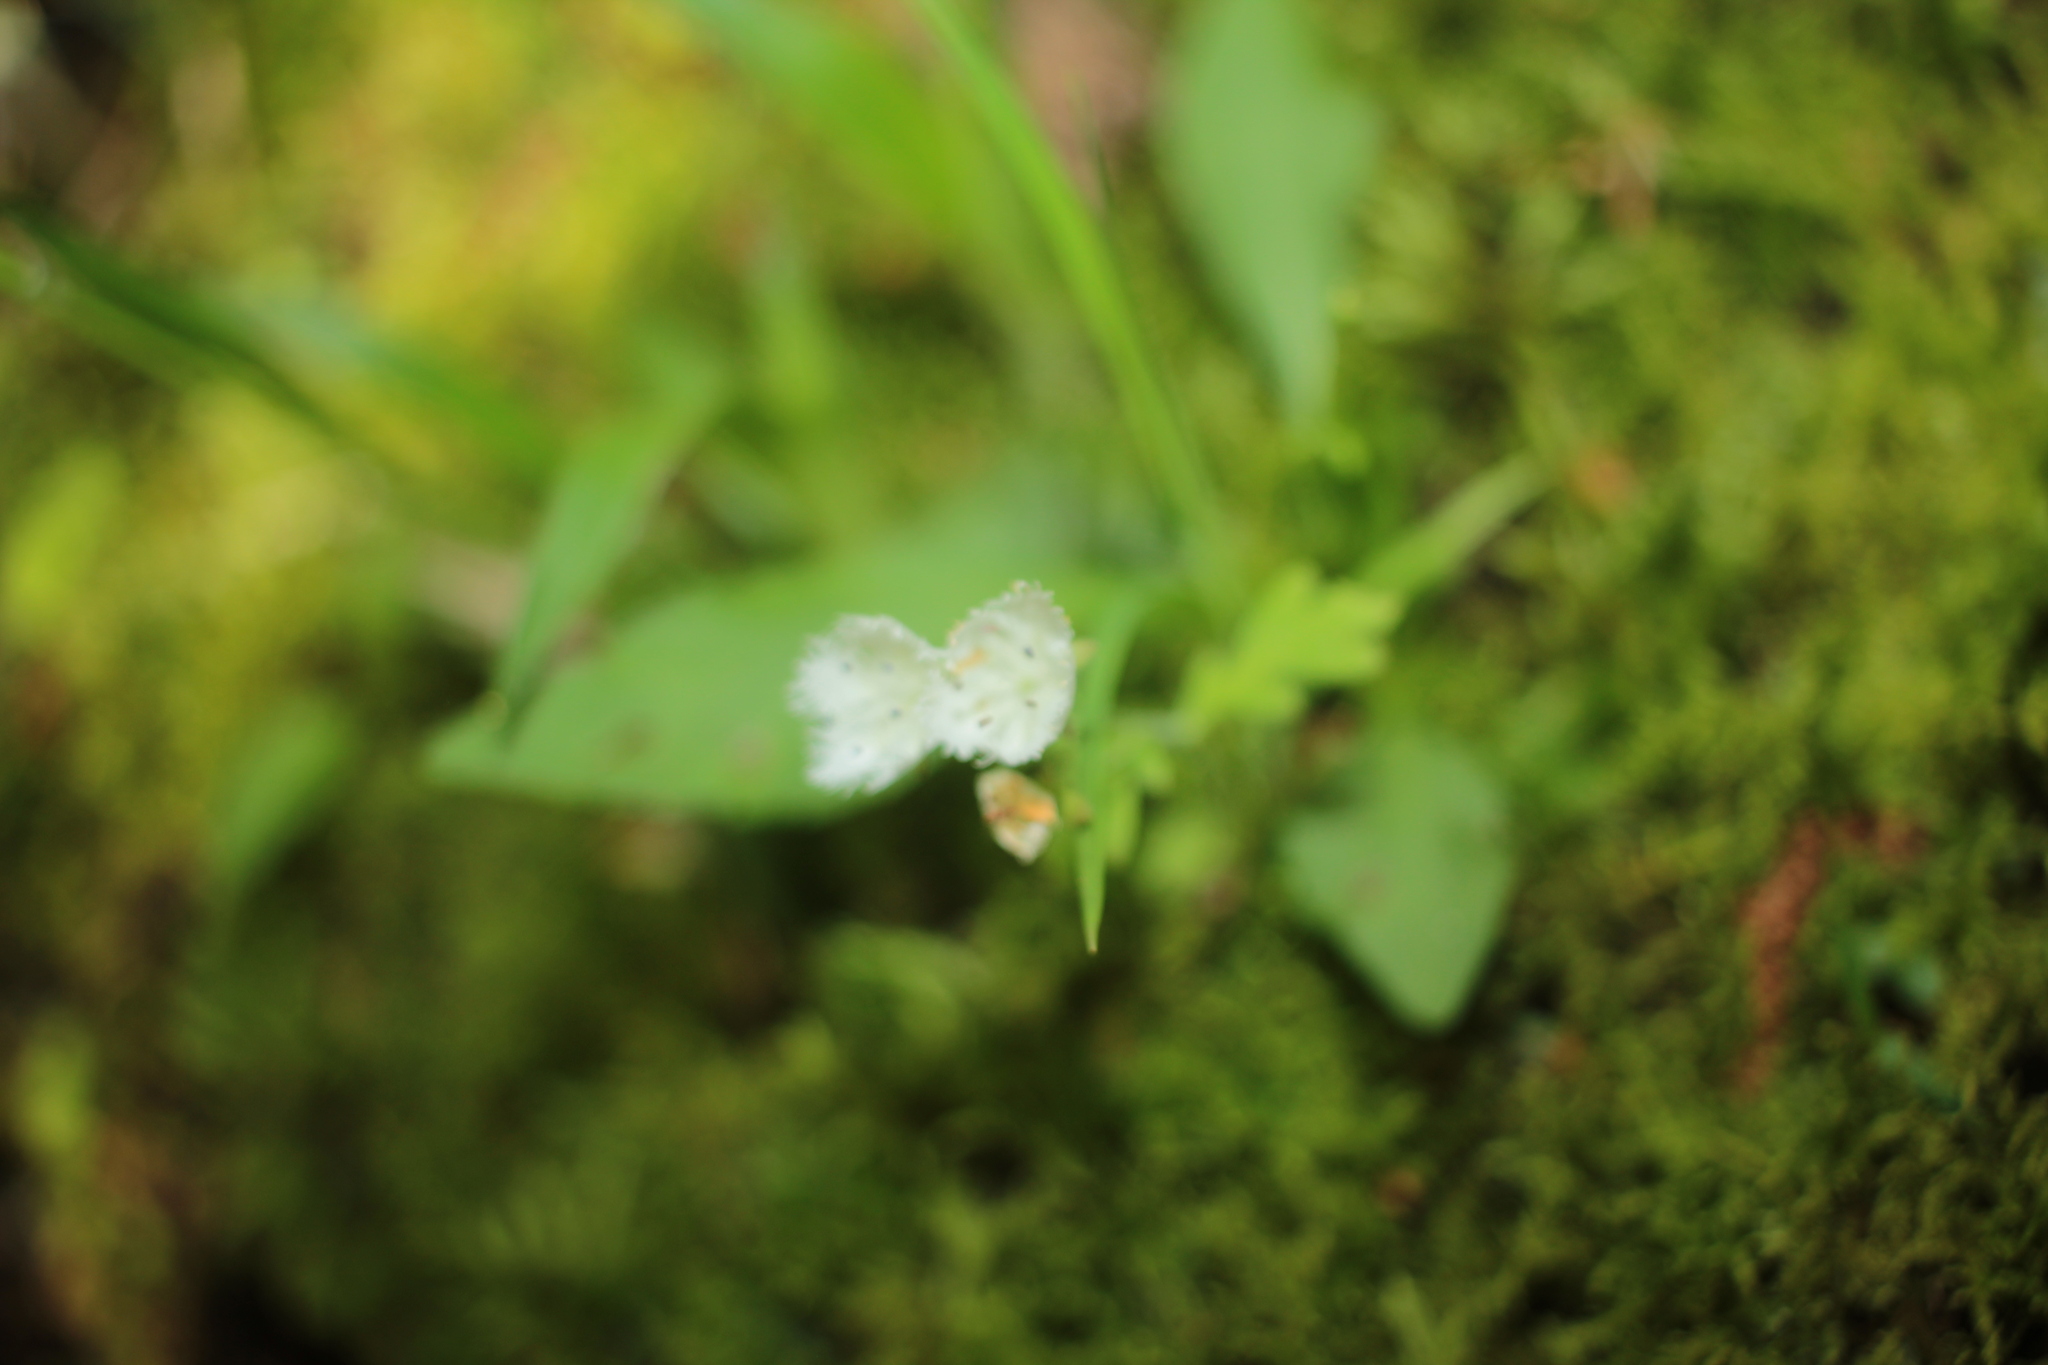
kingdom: Plantae
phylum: Tracheophyta
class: Magnoliopsida
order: Boraginales
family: Hydrophyllaceae
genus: Phacelia
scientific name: Phacelia fimbriata
